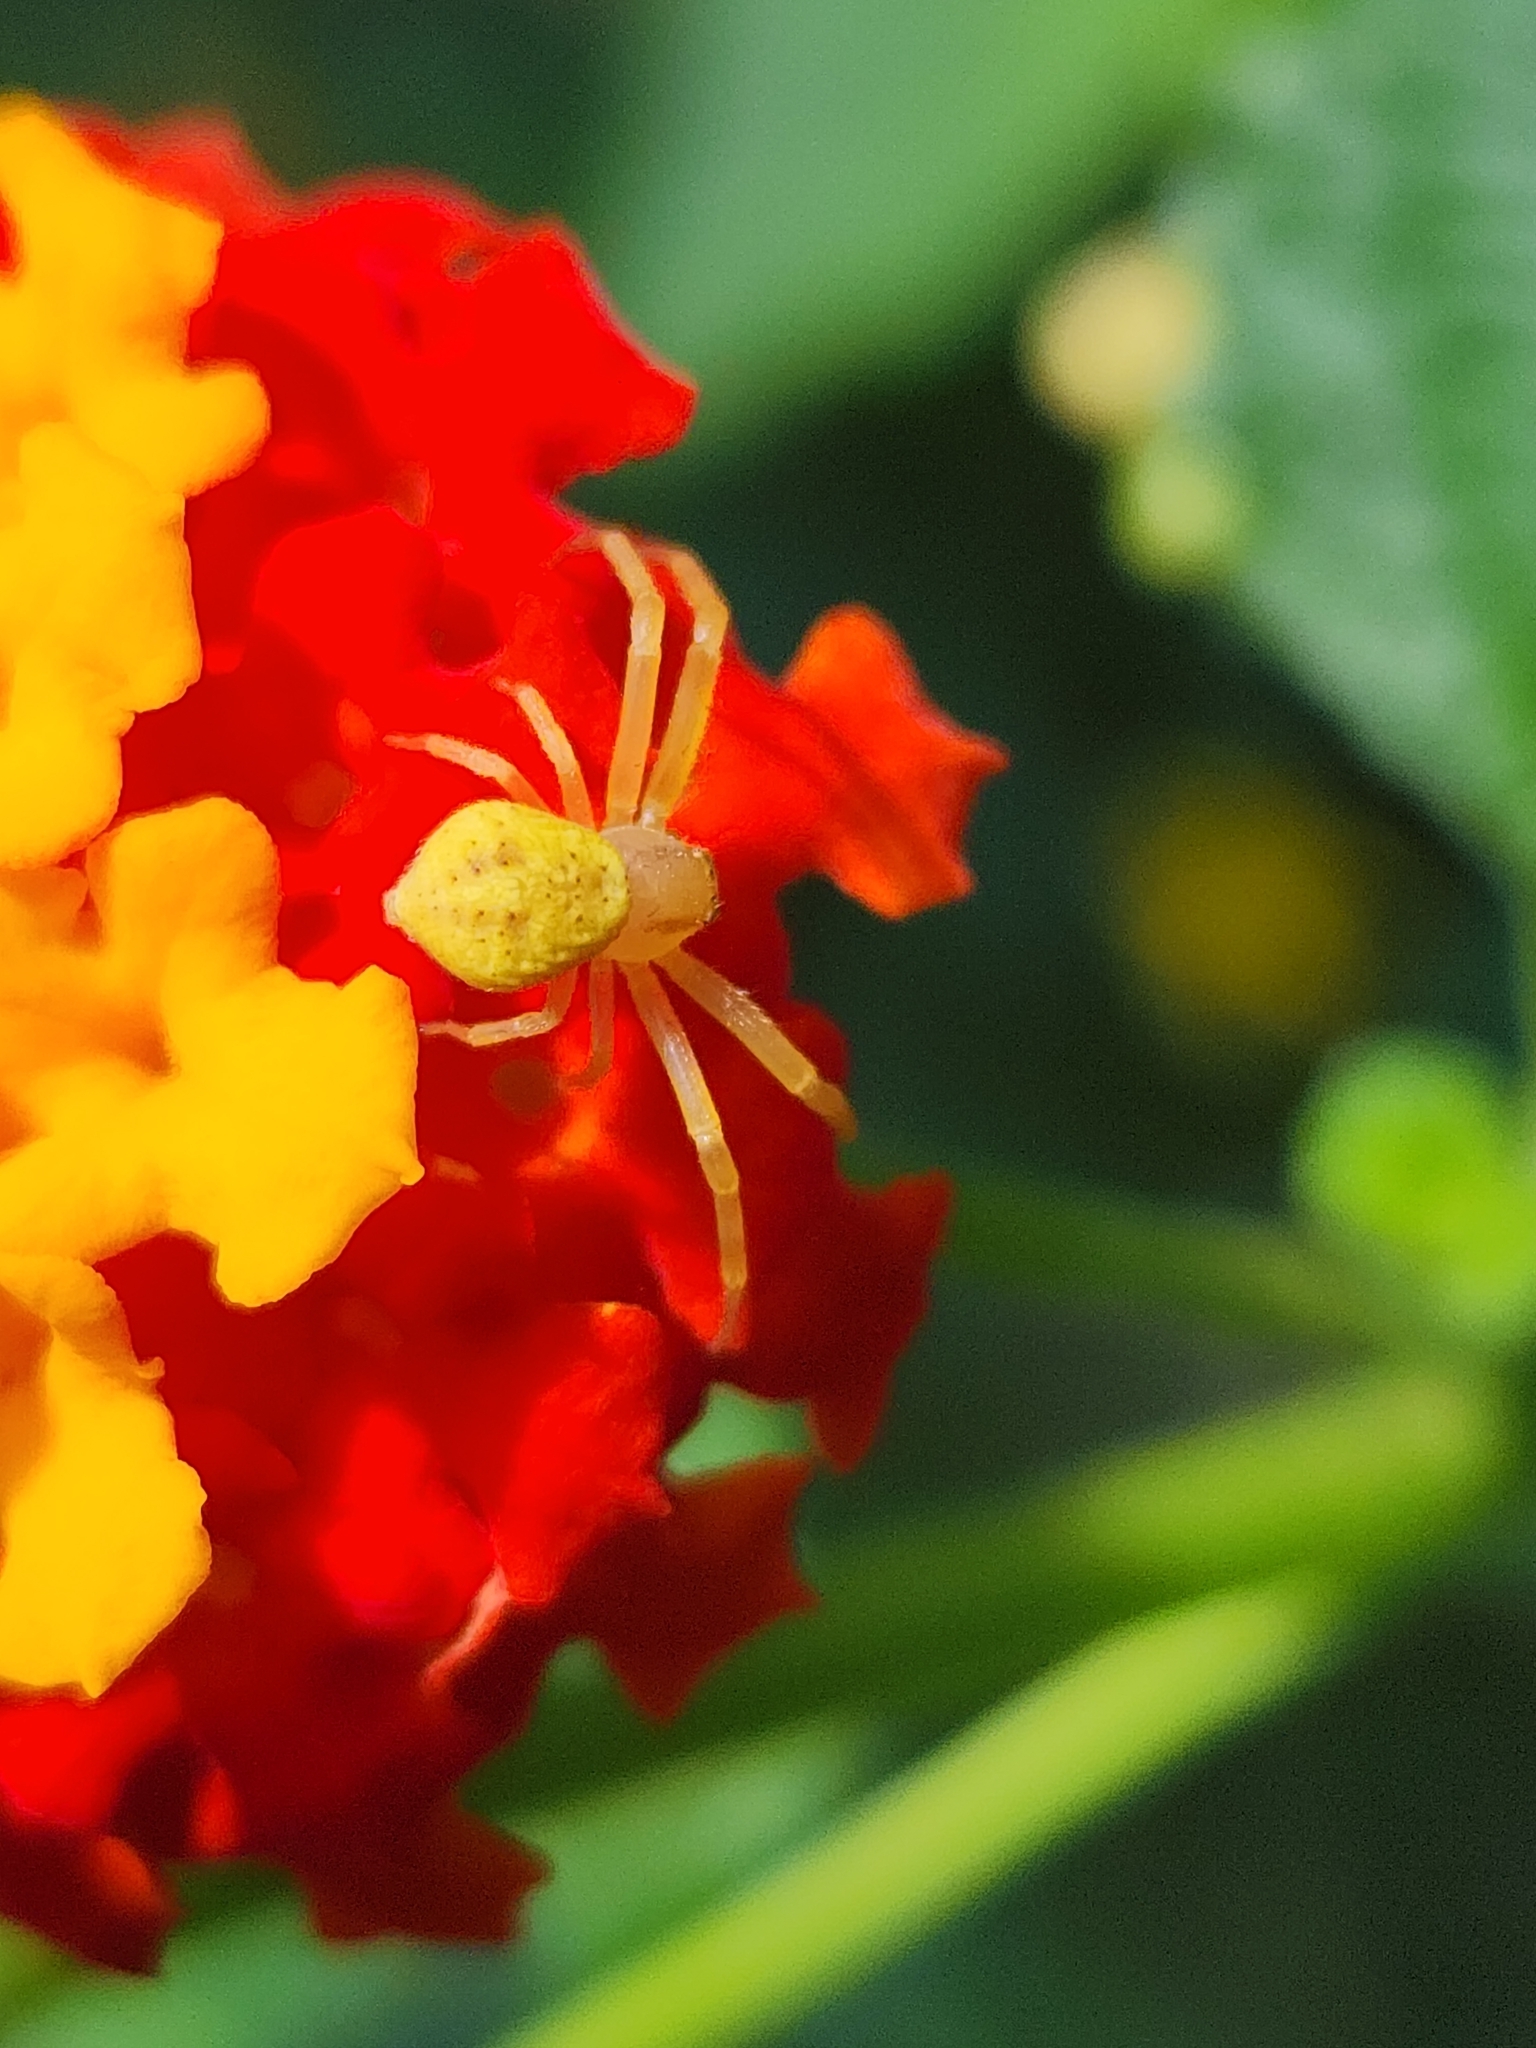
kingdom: Animalia
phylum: Arthropoda
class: Arachnida
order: Araneae
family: Thomisidae
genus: Misumenops
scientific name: Misumenops
